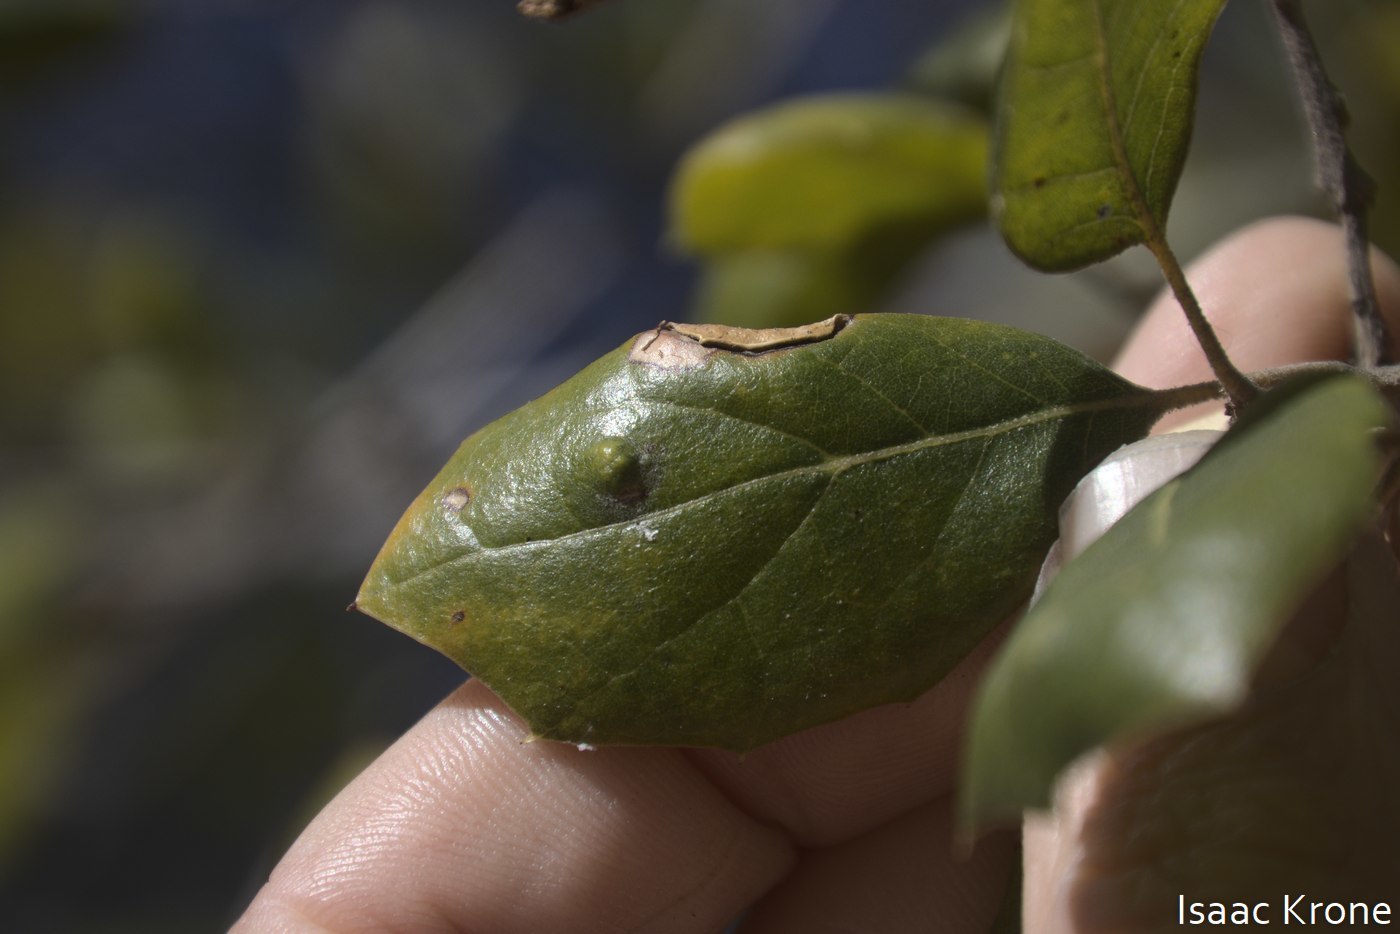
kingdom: Animalia
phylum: Arthropoda
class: Arachnida
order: Trombidiformes
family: Eriophyidae
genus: Aceria
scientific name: Aceria
